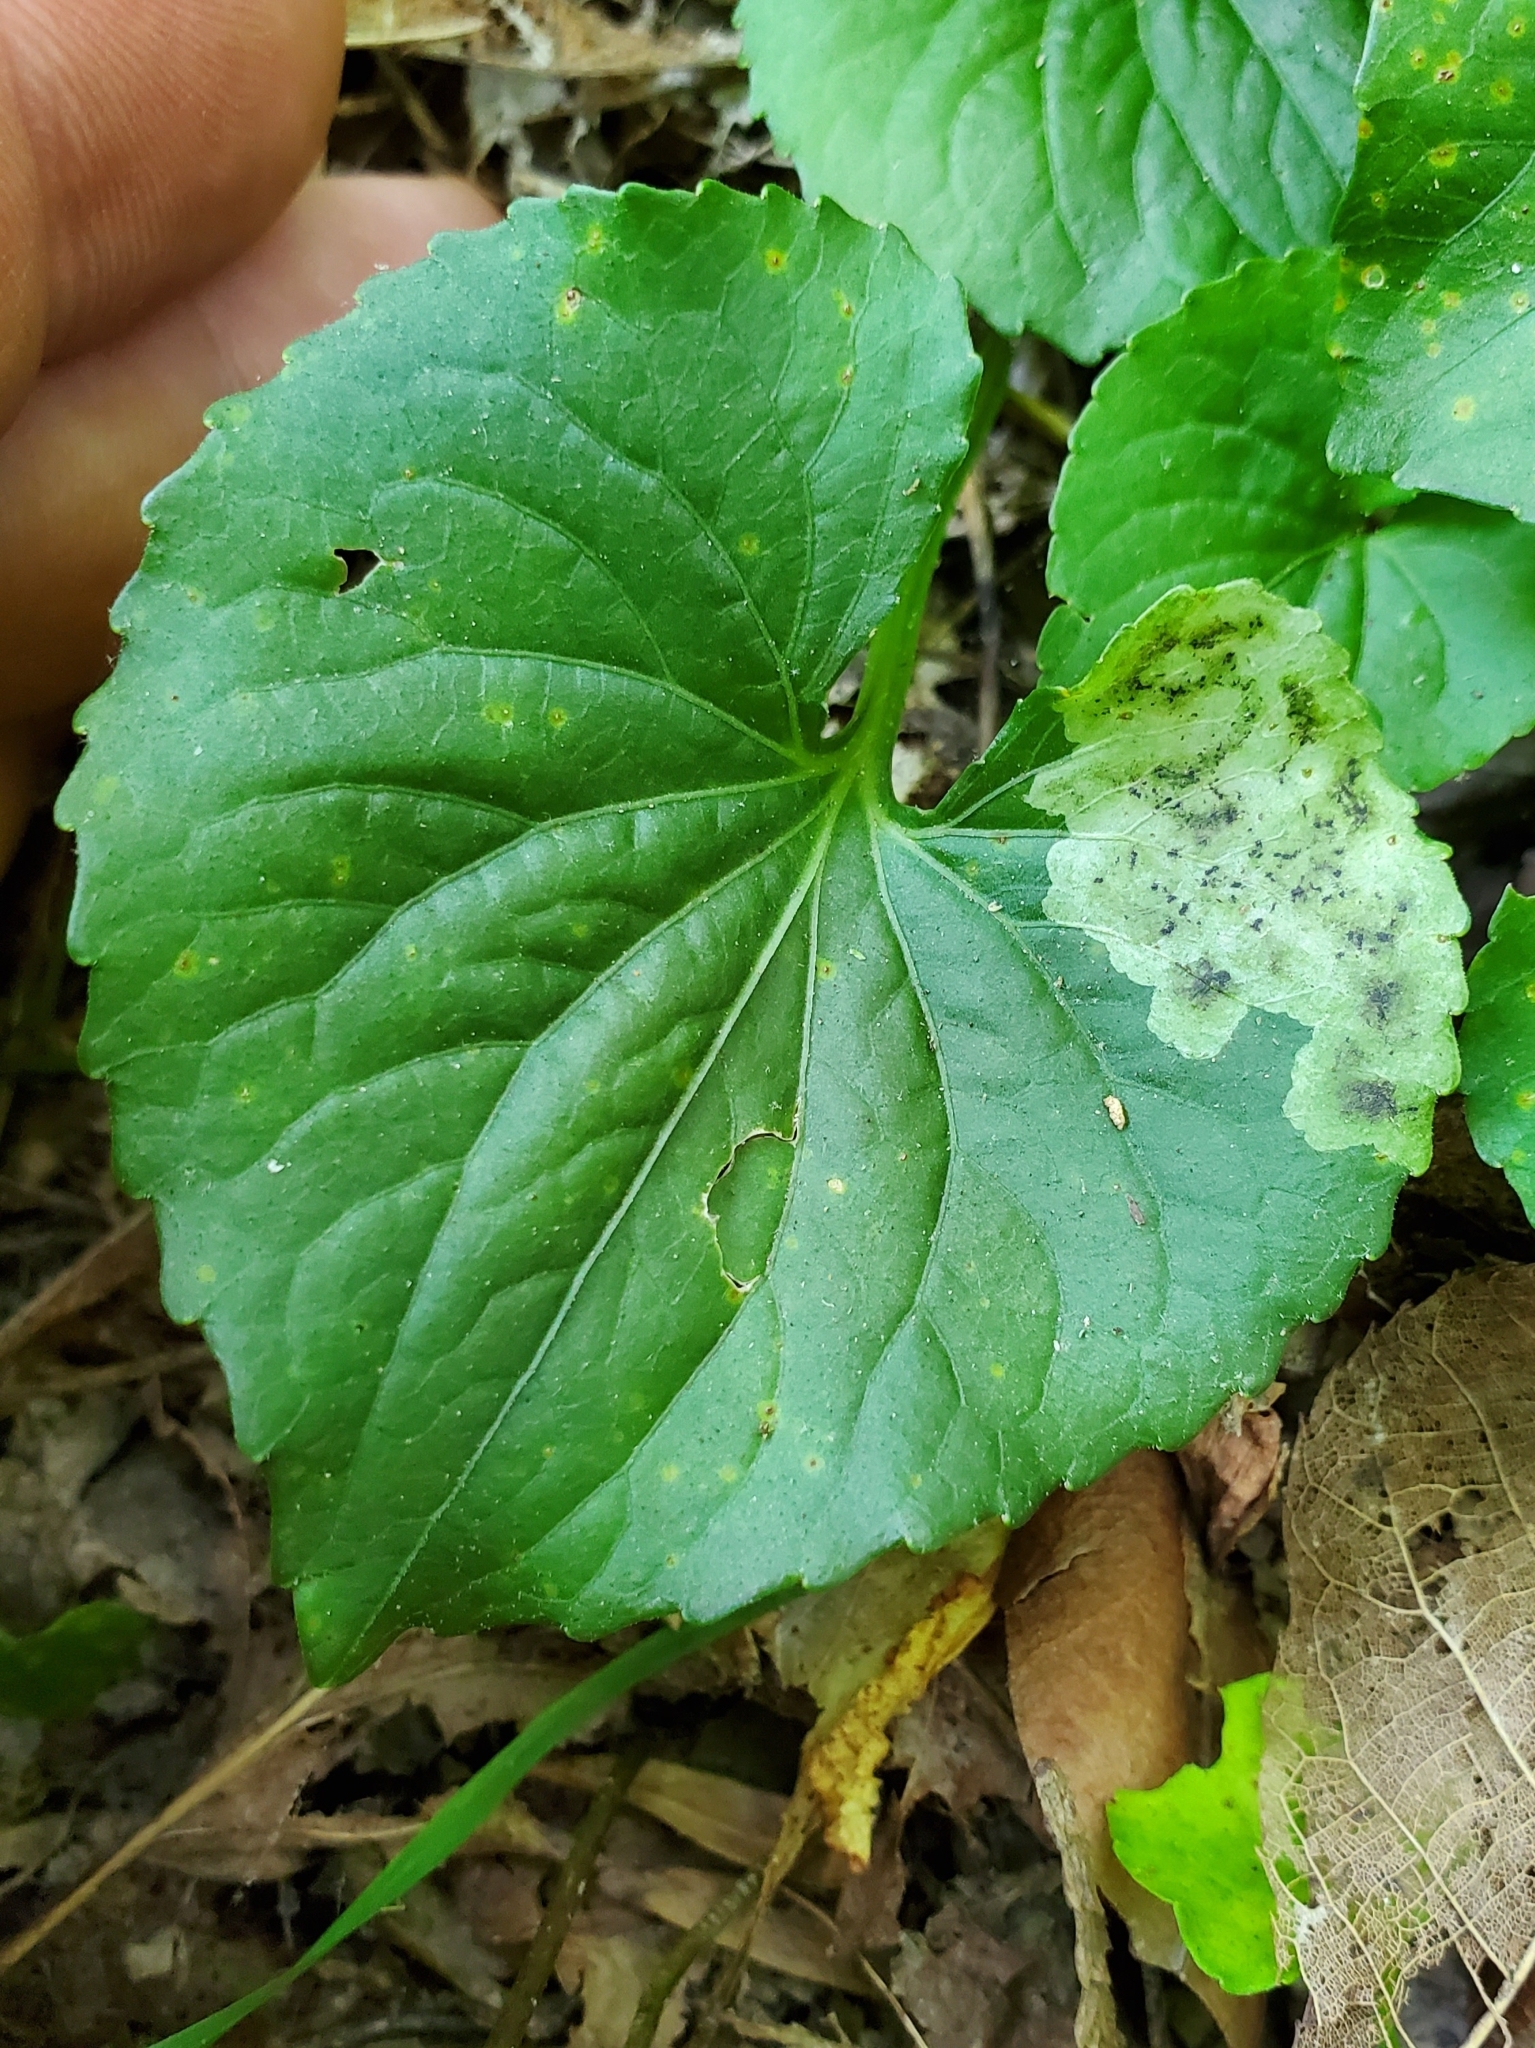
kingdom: Animalia
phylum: Arthropoda
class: Insecta
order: Diptera
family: Agromyzidae
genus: Liriomyza
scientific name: Liriomyza violivora
